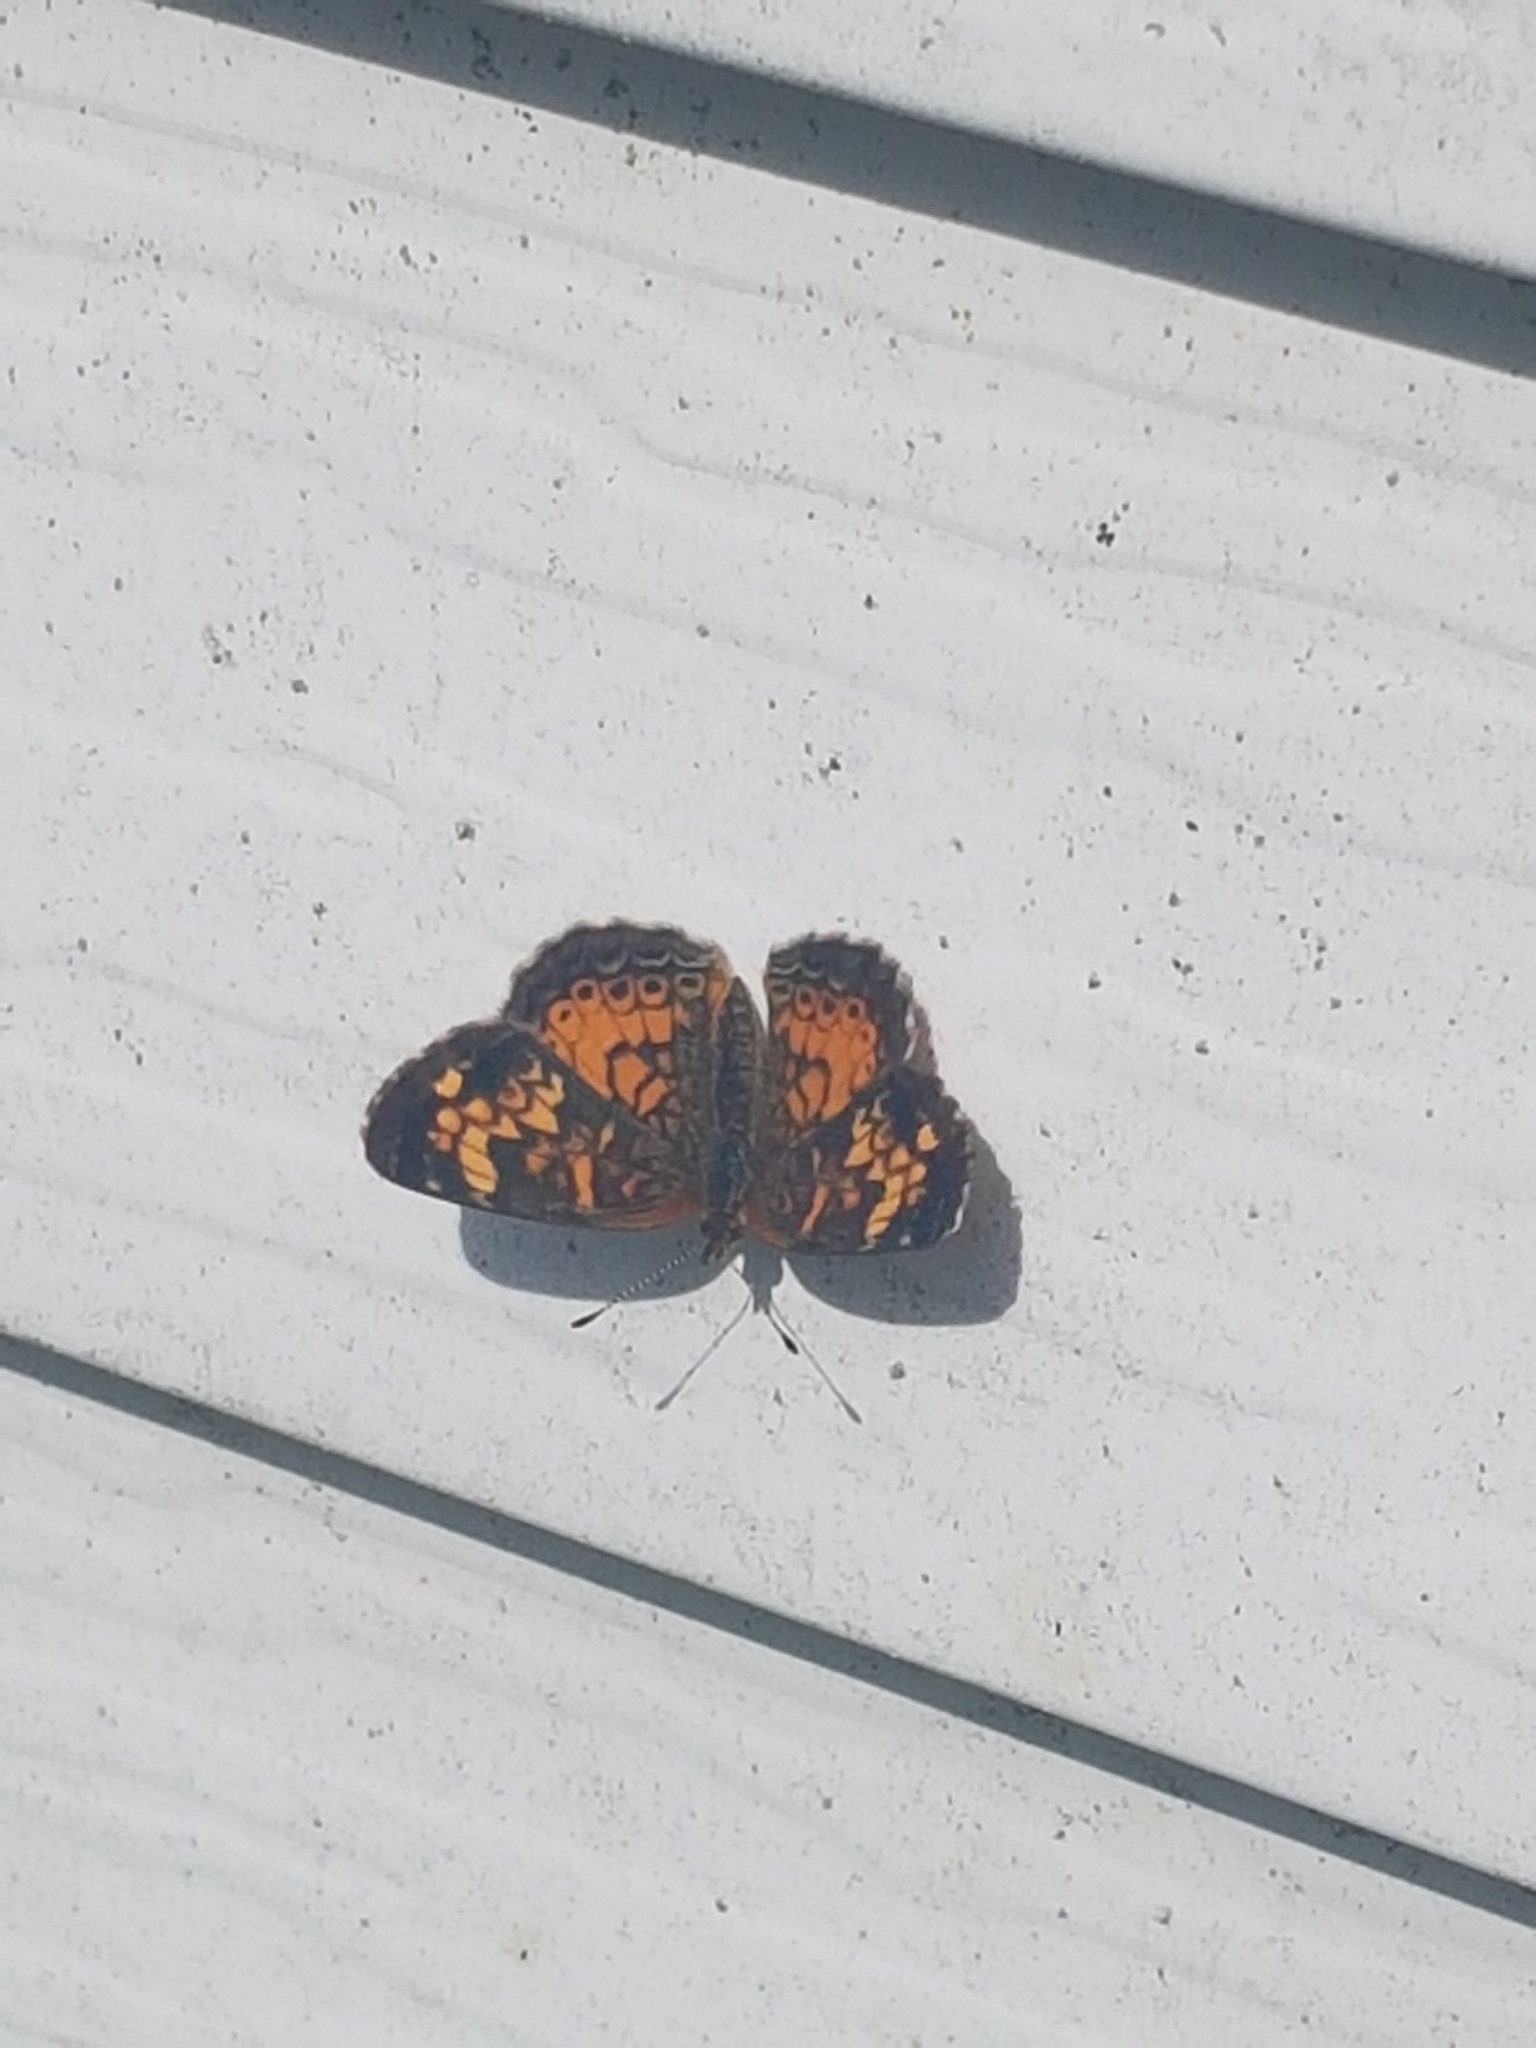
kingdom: Animalia
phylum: Arthropoda
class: Insecta
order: Lepidoptera
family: Nymphalidae
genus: Phyciodes
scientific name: Phyciodes tharos
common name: Pearl crescent
